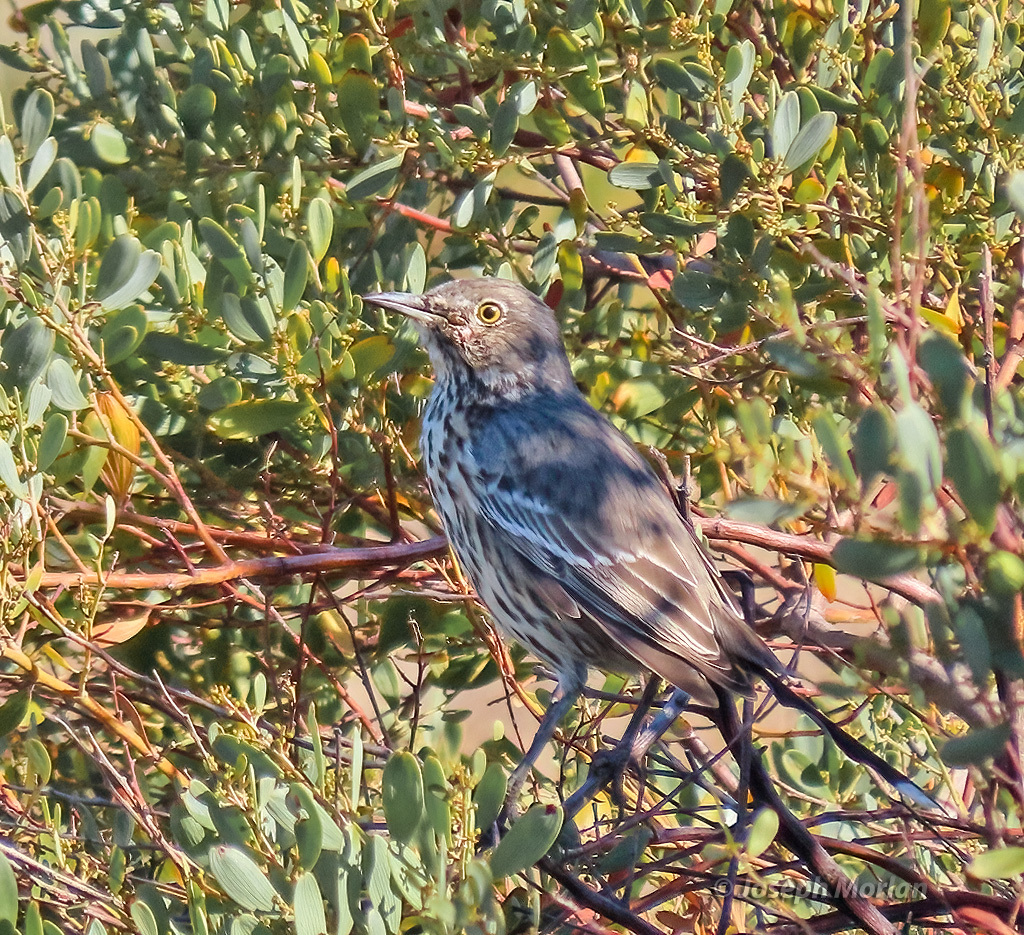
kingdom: Animalia
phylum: Chordata
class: Aves
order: Passeriformes
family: Mimidae
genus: Oreoscoptes
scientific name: Oreoscoptes montanus
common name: Sage thrasher
